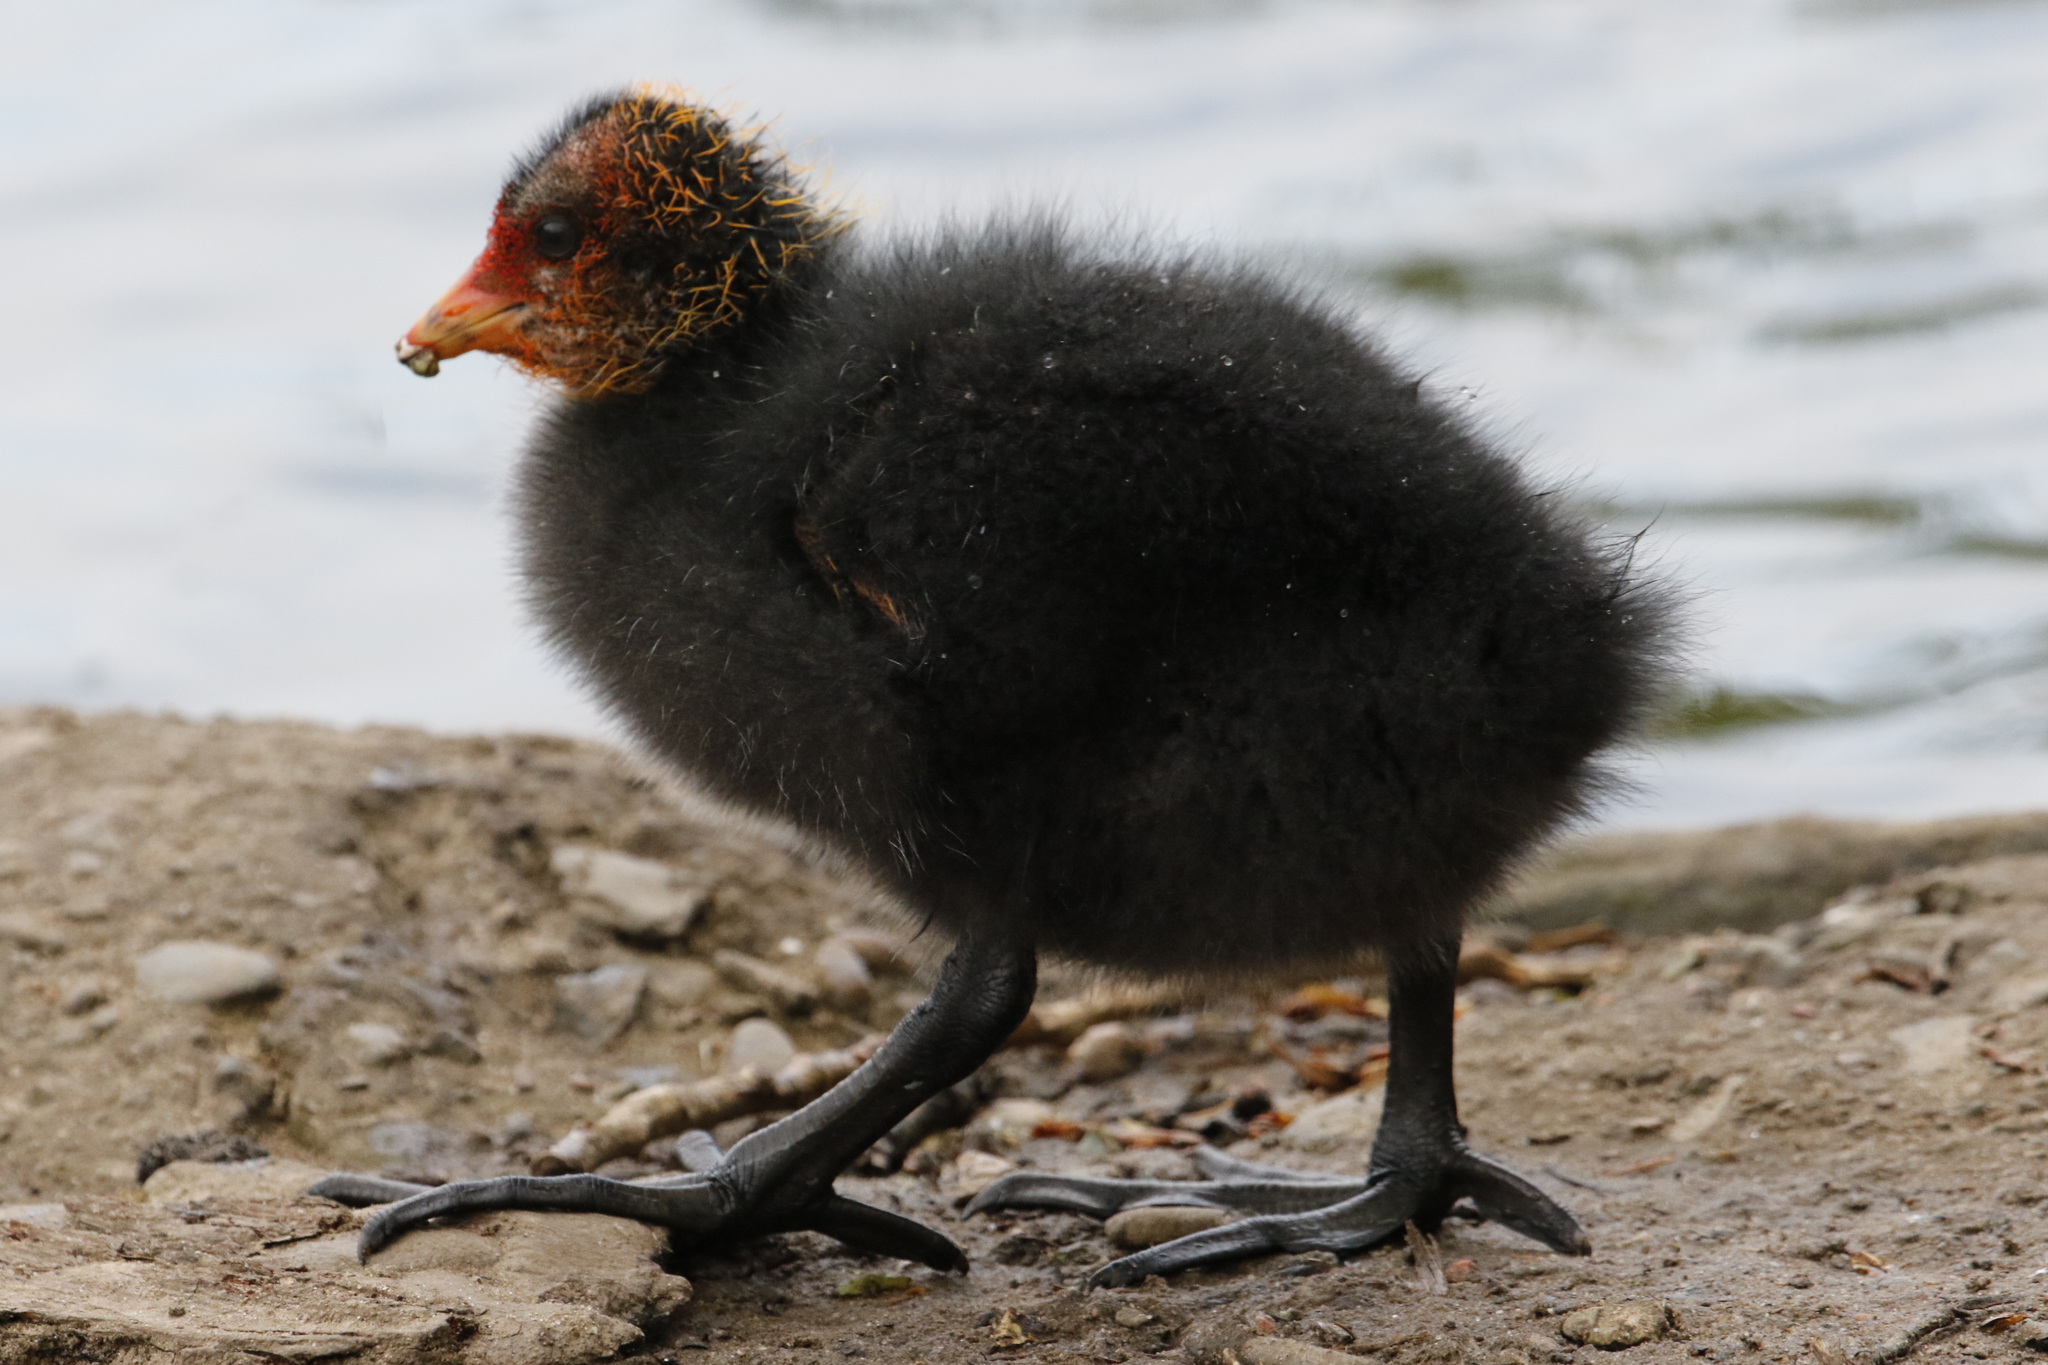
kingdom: Animalia
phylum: Chordata
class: Aves
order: Gruiformes
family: Rallidae
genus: Fulica
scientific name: Fulica atra
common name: Eurasian coot
